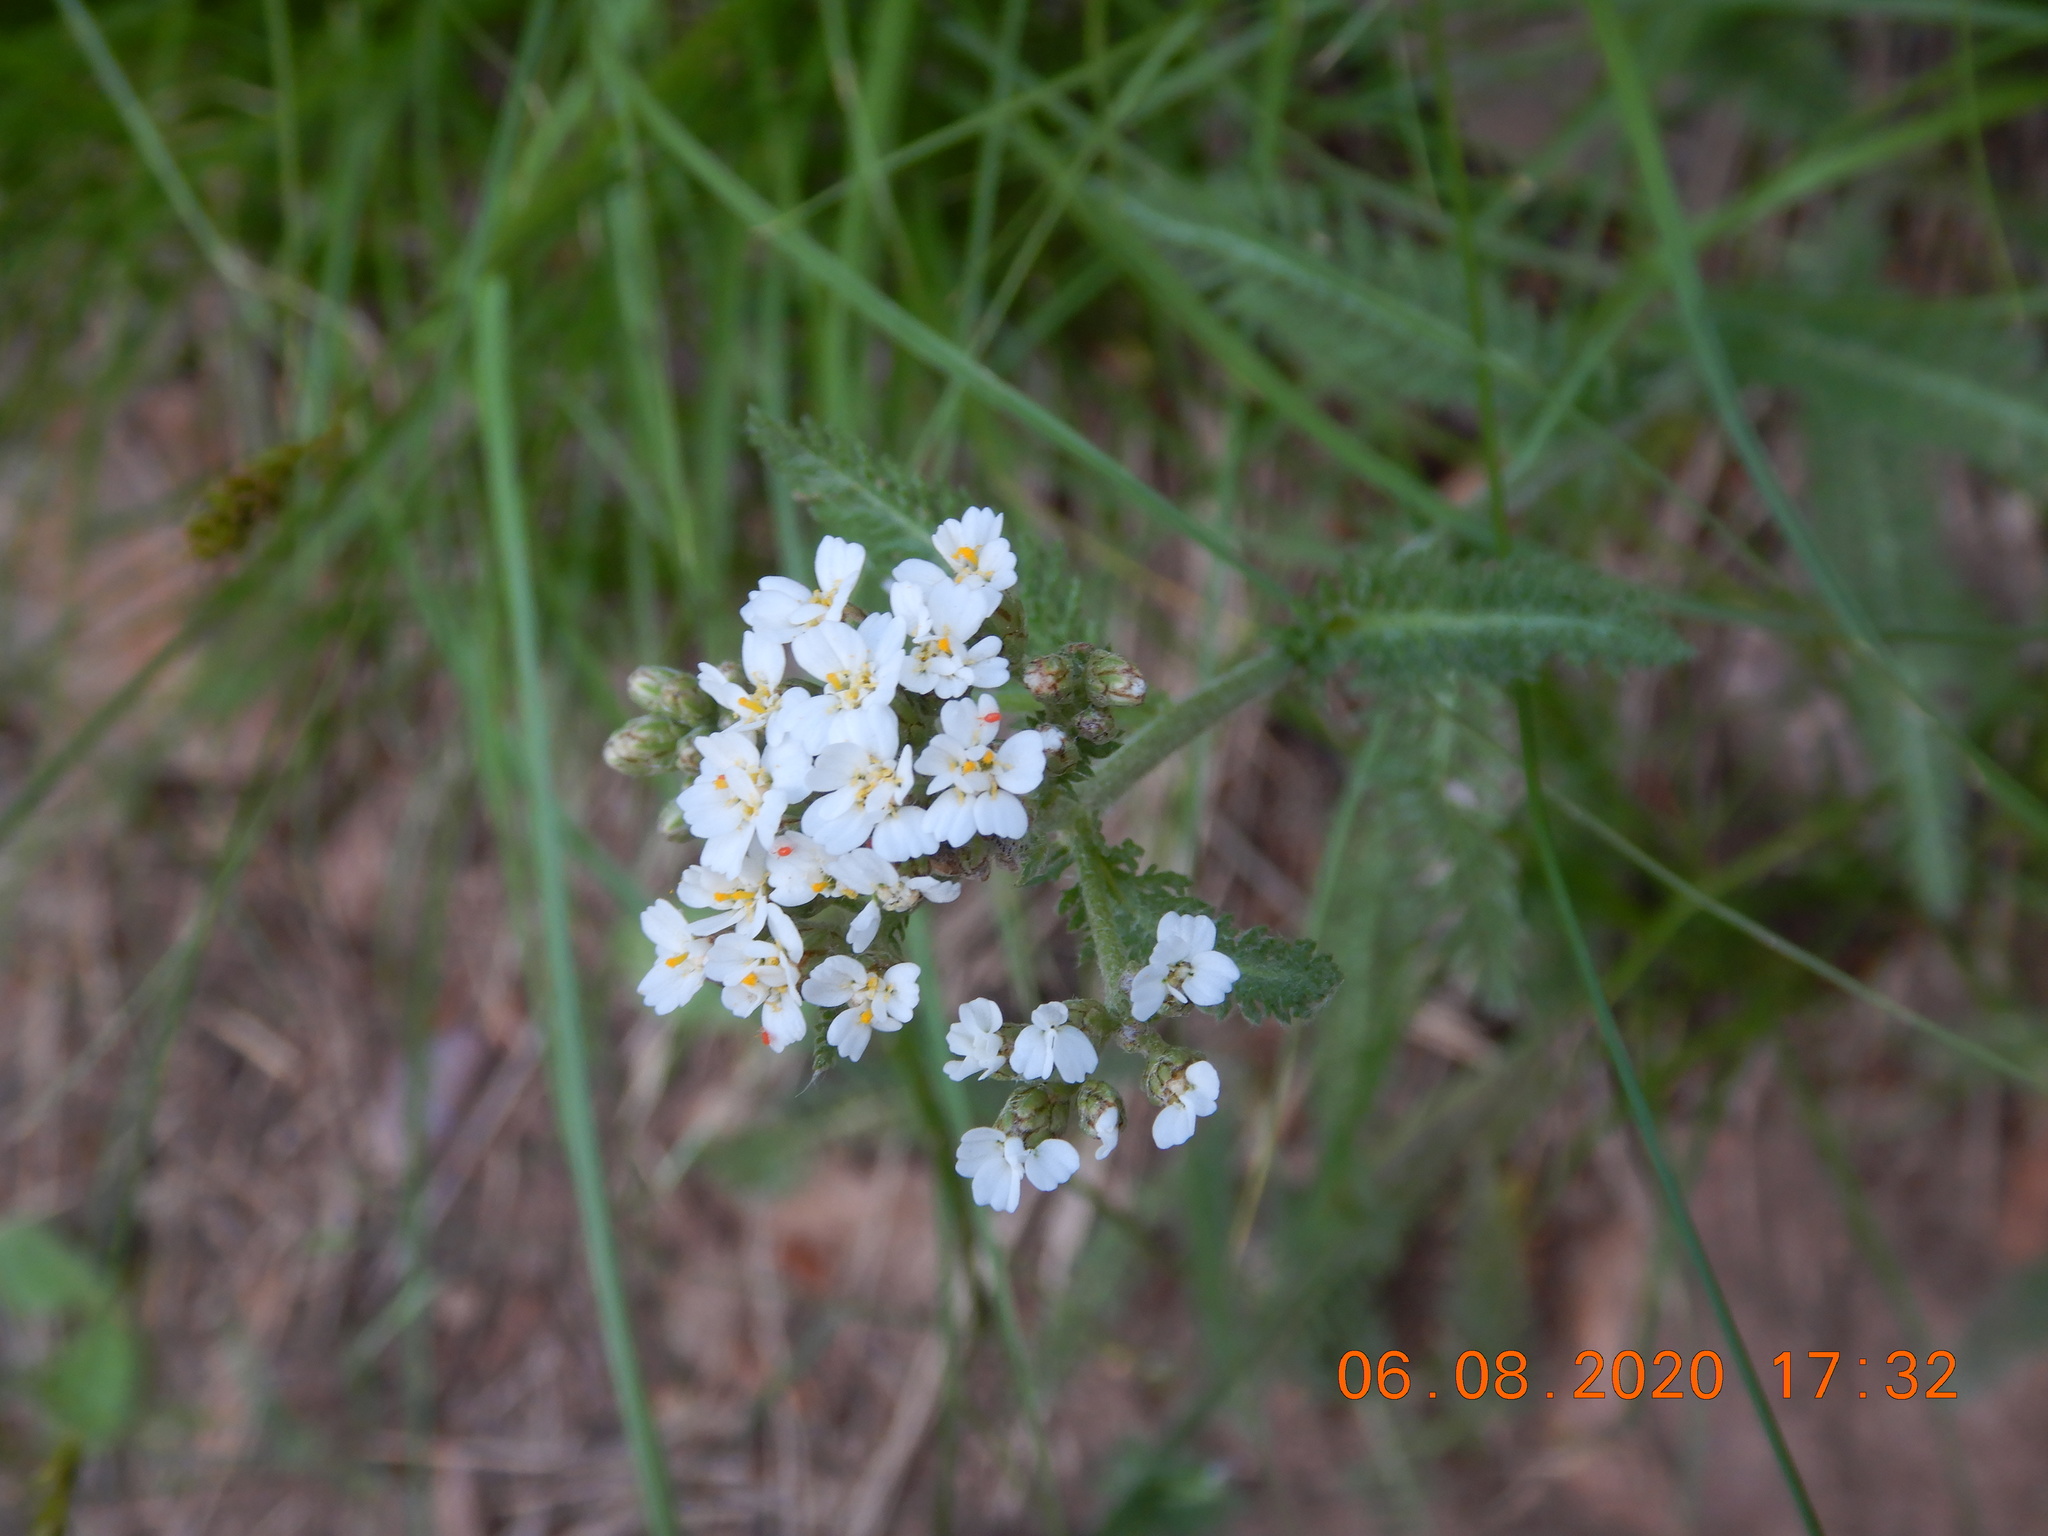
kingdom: Plantae
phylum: Tracheophyta
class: Magnoliopsida
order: Asterales
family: Asteraceae
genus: Achillea
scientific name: Achillea millefolium
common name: Yarrow
